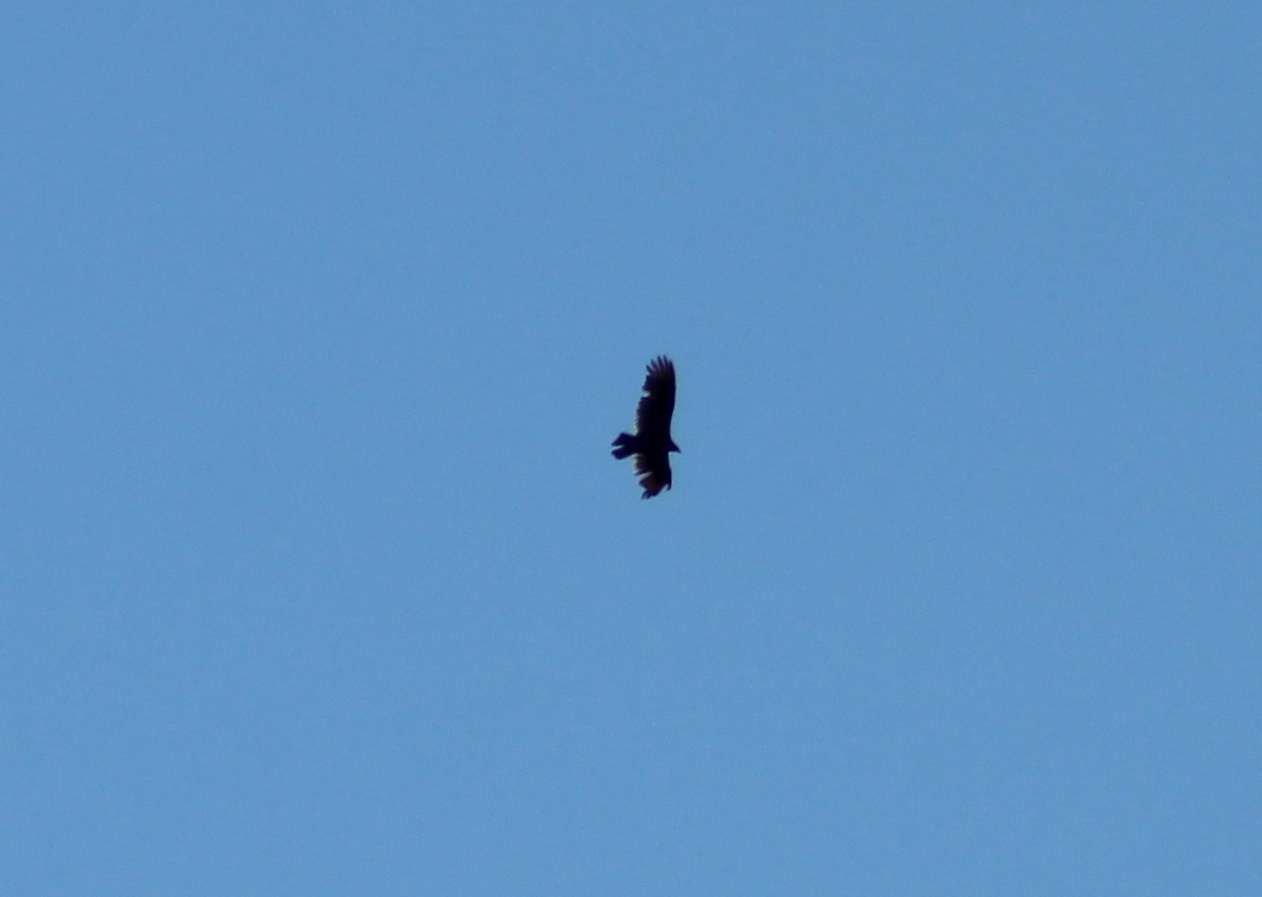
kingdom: Animalia
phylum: Chordata
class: Aves
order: Accipitriformes
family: Cathartidae
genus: Cathartes
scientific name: Cathartes aura
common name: Turkey vulture
